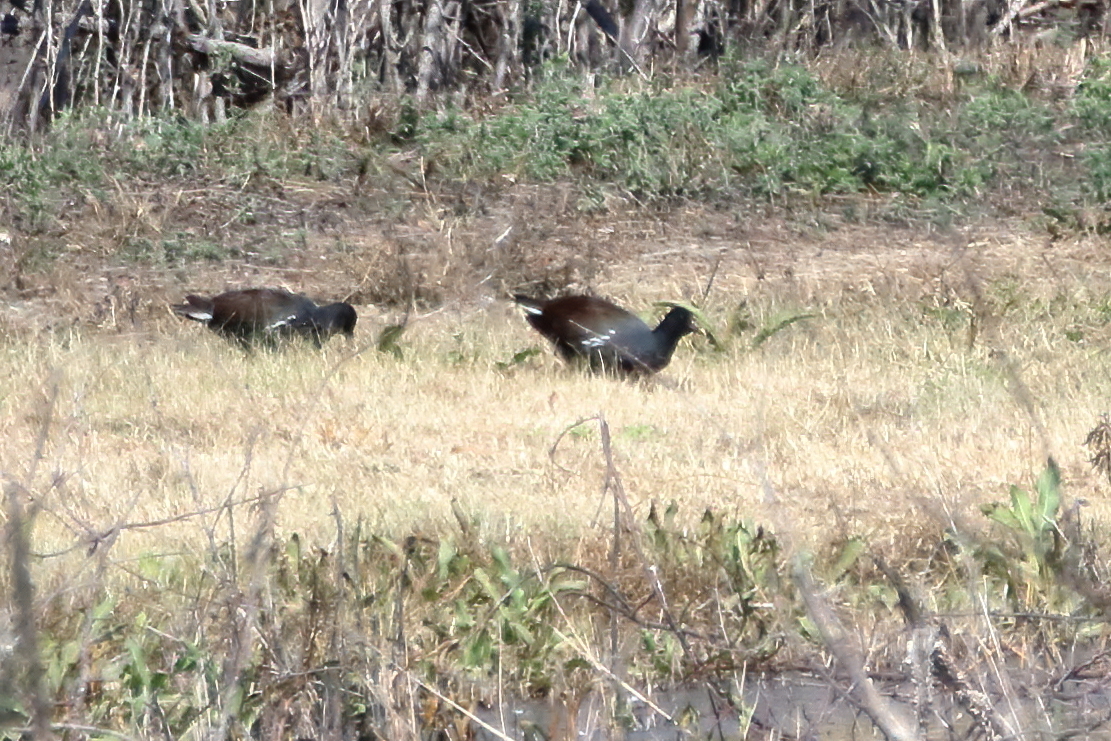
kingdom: Animalia
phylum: Chordata
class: Aves
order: Gruiformes
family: Rallidae
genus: Gallinula
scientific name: Gallinula chloropus
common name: Common moorhen
